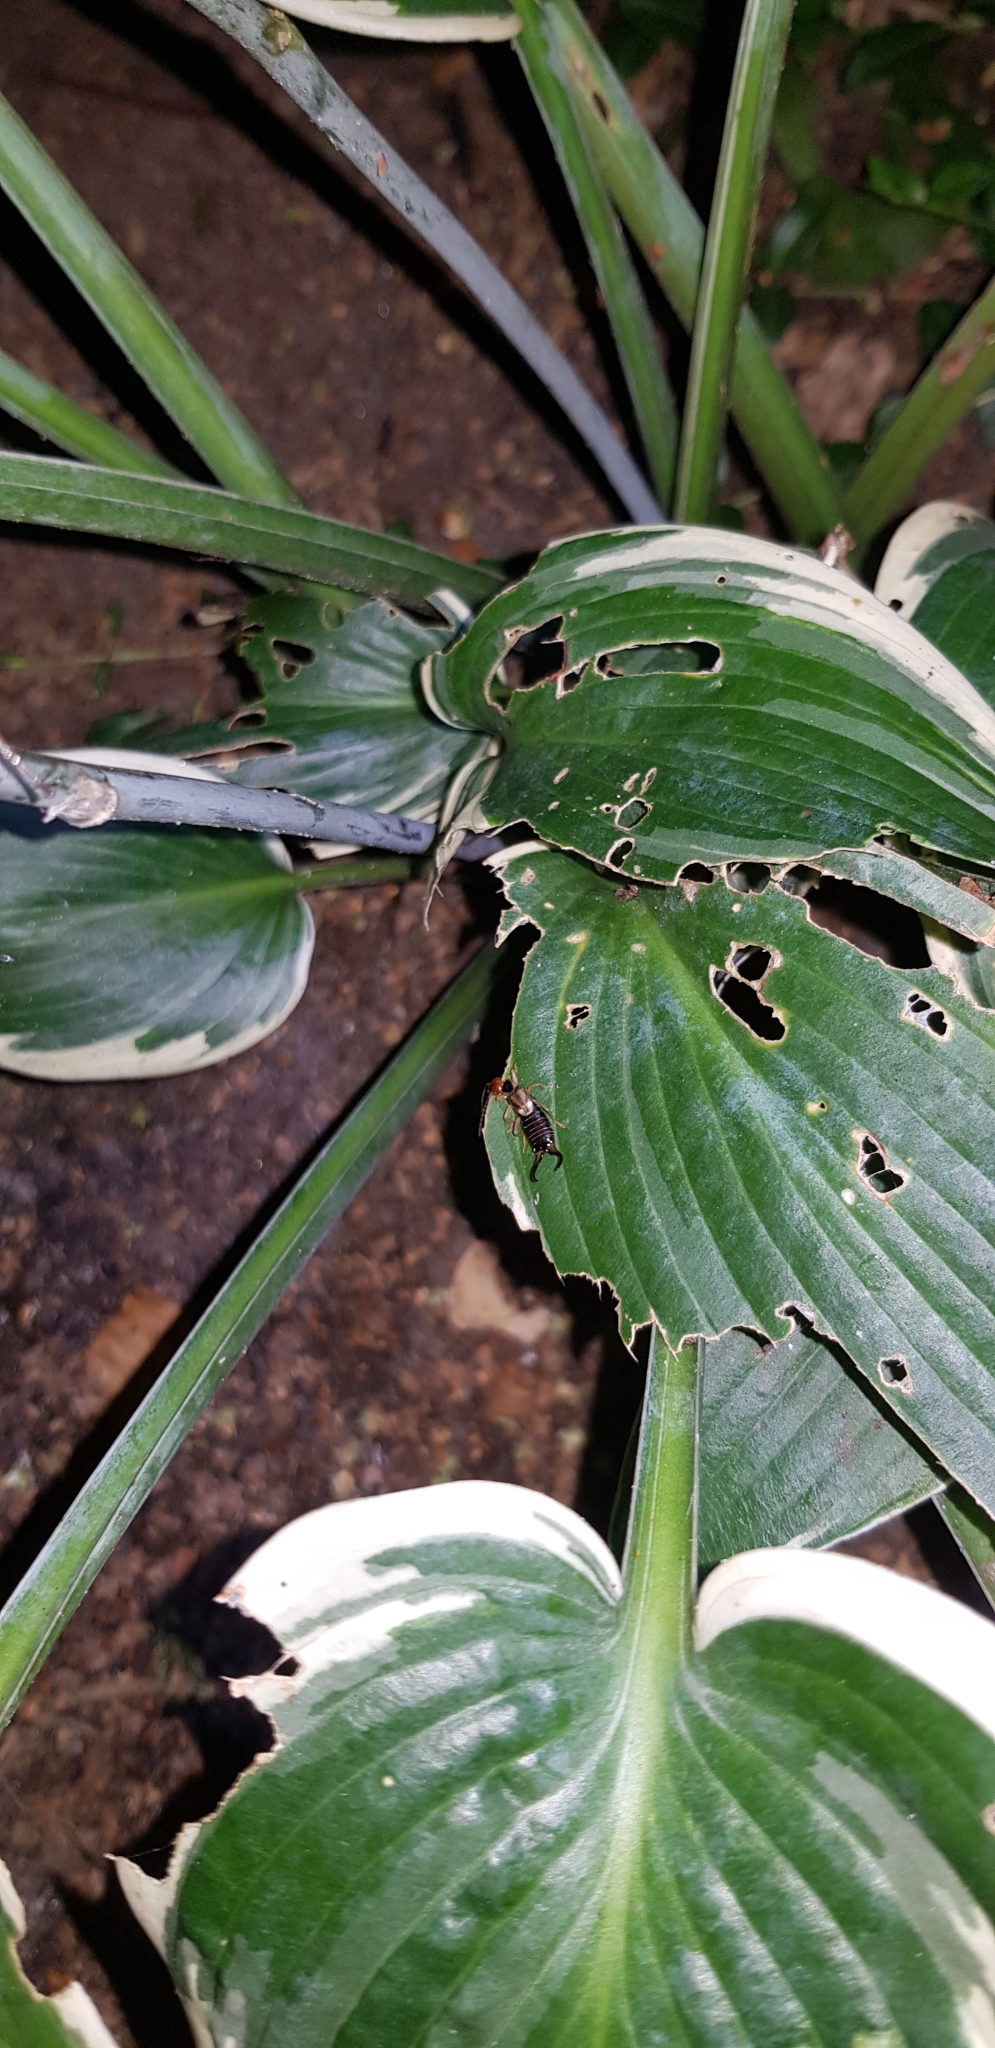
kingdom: Animalia
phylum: Arthropoda
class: Insecta
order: Dermaptera
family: Forficulidae
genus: Forficula
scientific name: Forficula
